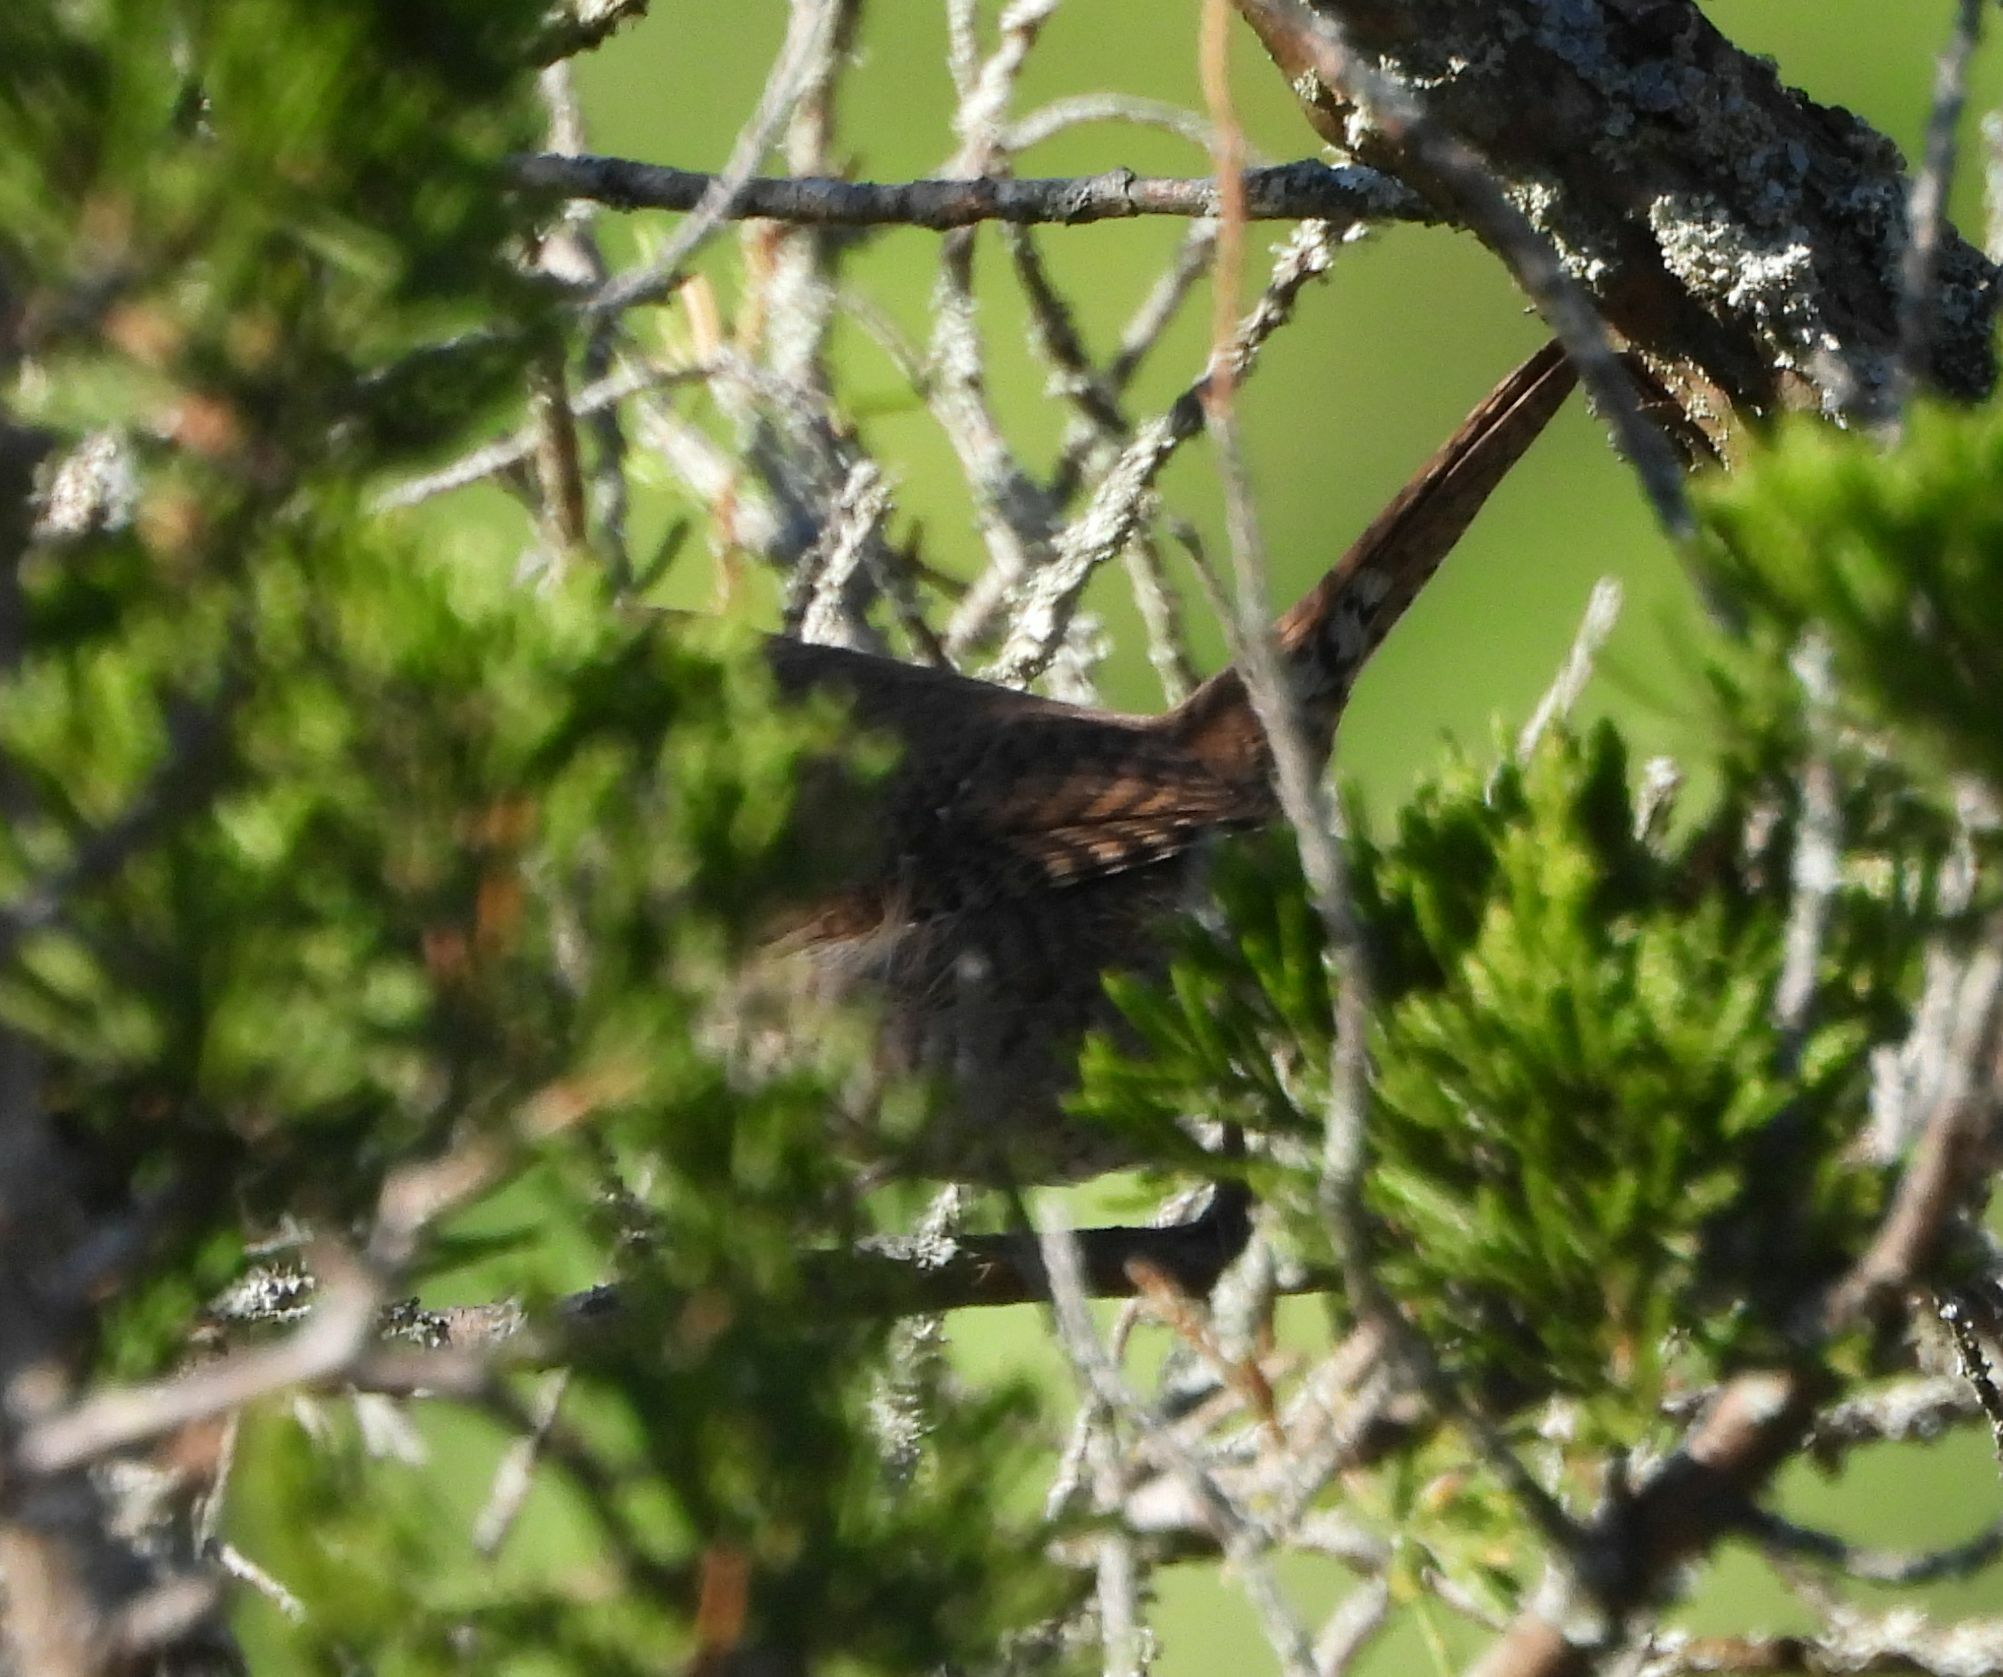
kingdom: Animalia
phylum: Chordata
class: Aves
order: Passeriformes
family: Troglodytidae
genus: Troglodytes
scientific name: Troglodytes aedon
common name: House wren
